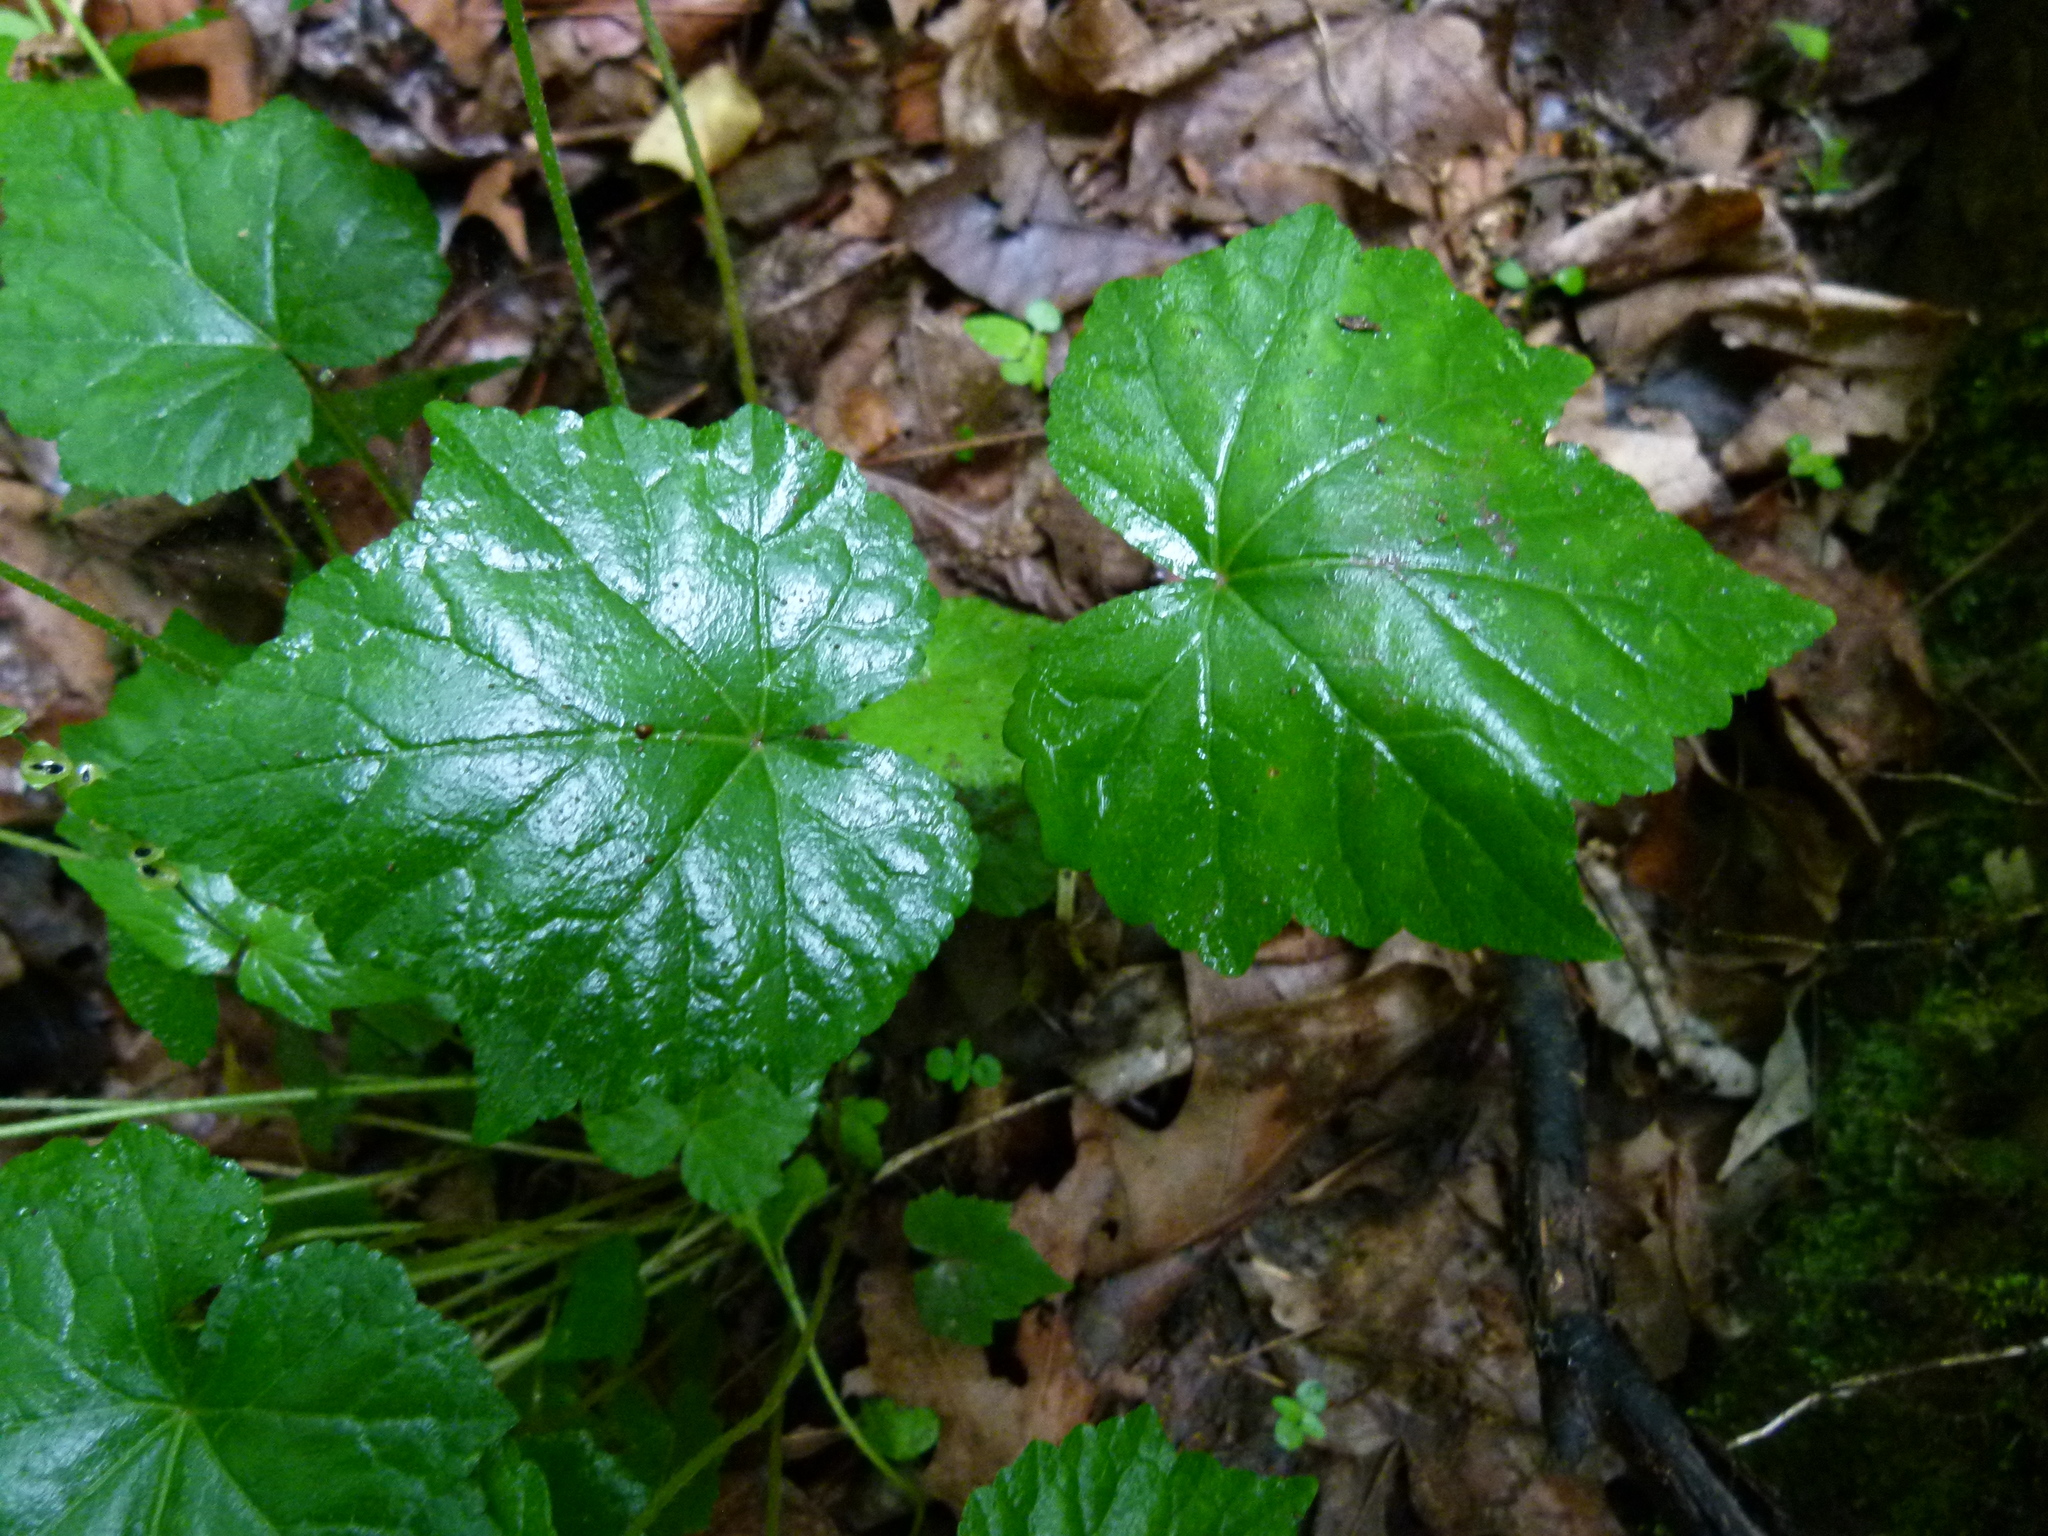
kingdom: Plantae
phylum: Tracheophyta
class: Magnoliopsida
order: Saxifragales
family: Saxifragaceae
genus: Mitella
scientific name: Mitella diphylla
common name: Coolwort
